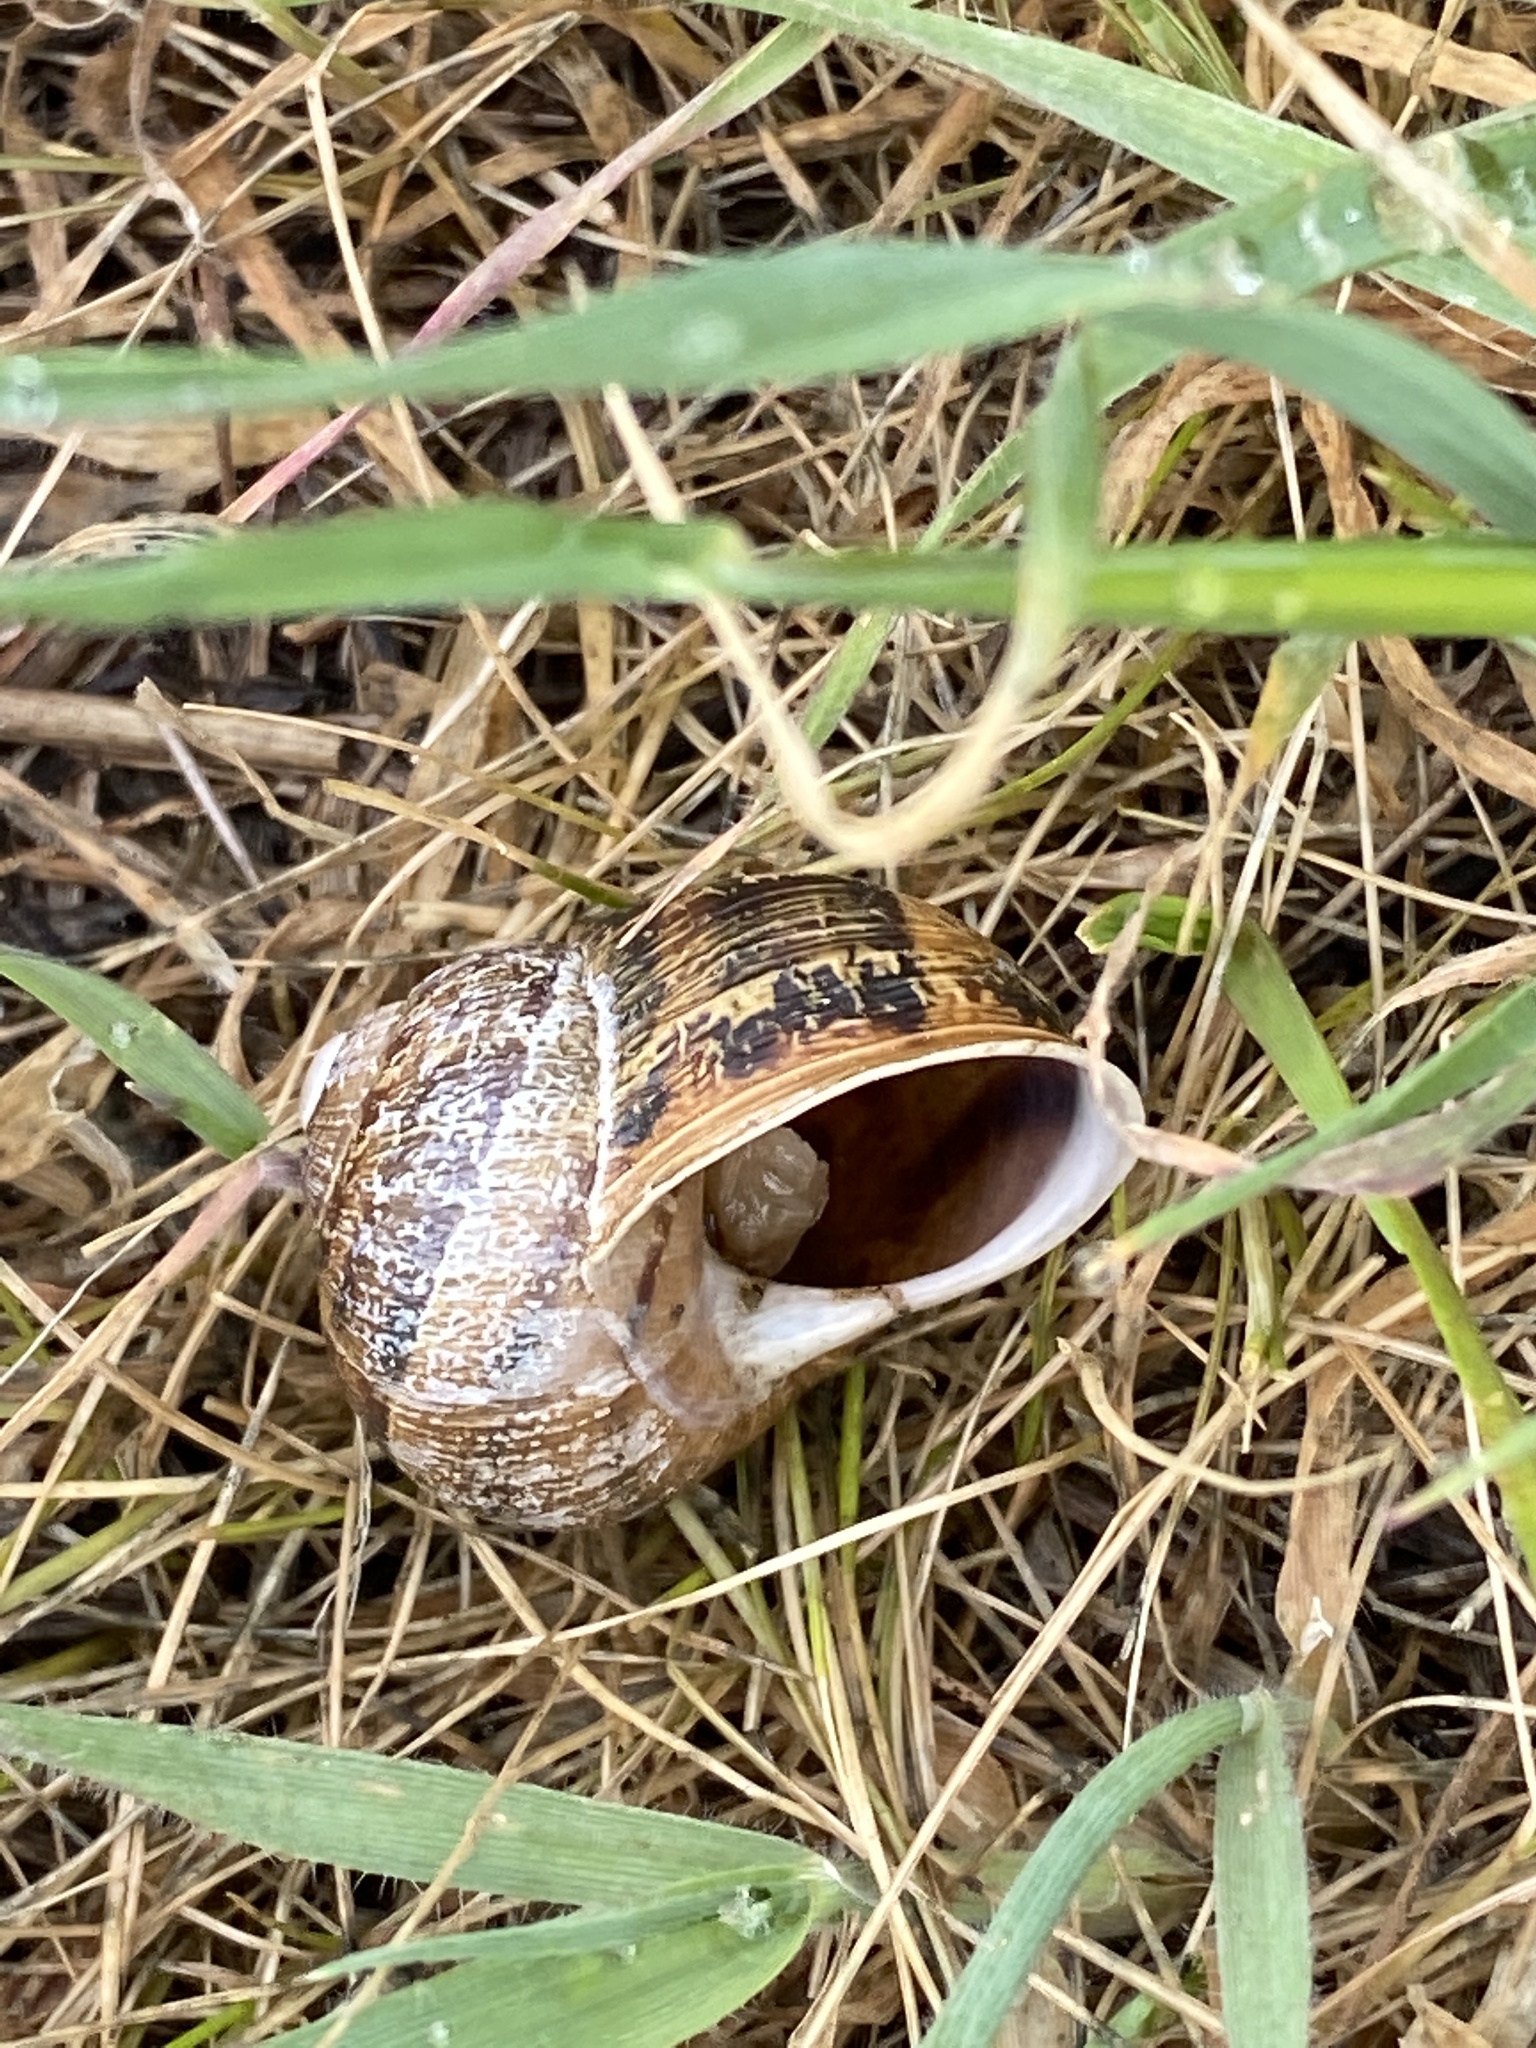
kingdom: Animalia
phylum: Mollusca
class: Gastropoda
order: Stylommatophora
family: Helicidae
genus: Cornu
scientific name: Cornu aspersum
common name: Brown garden snail
